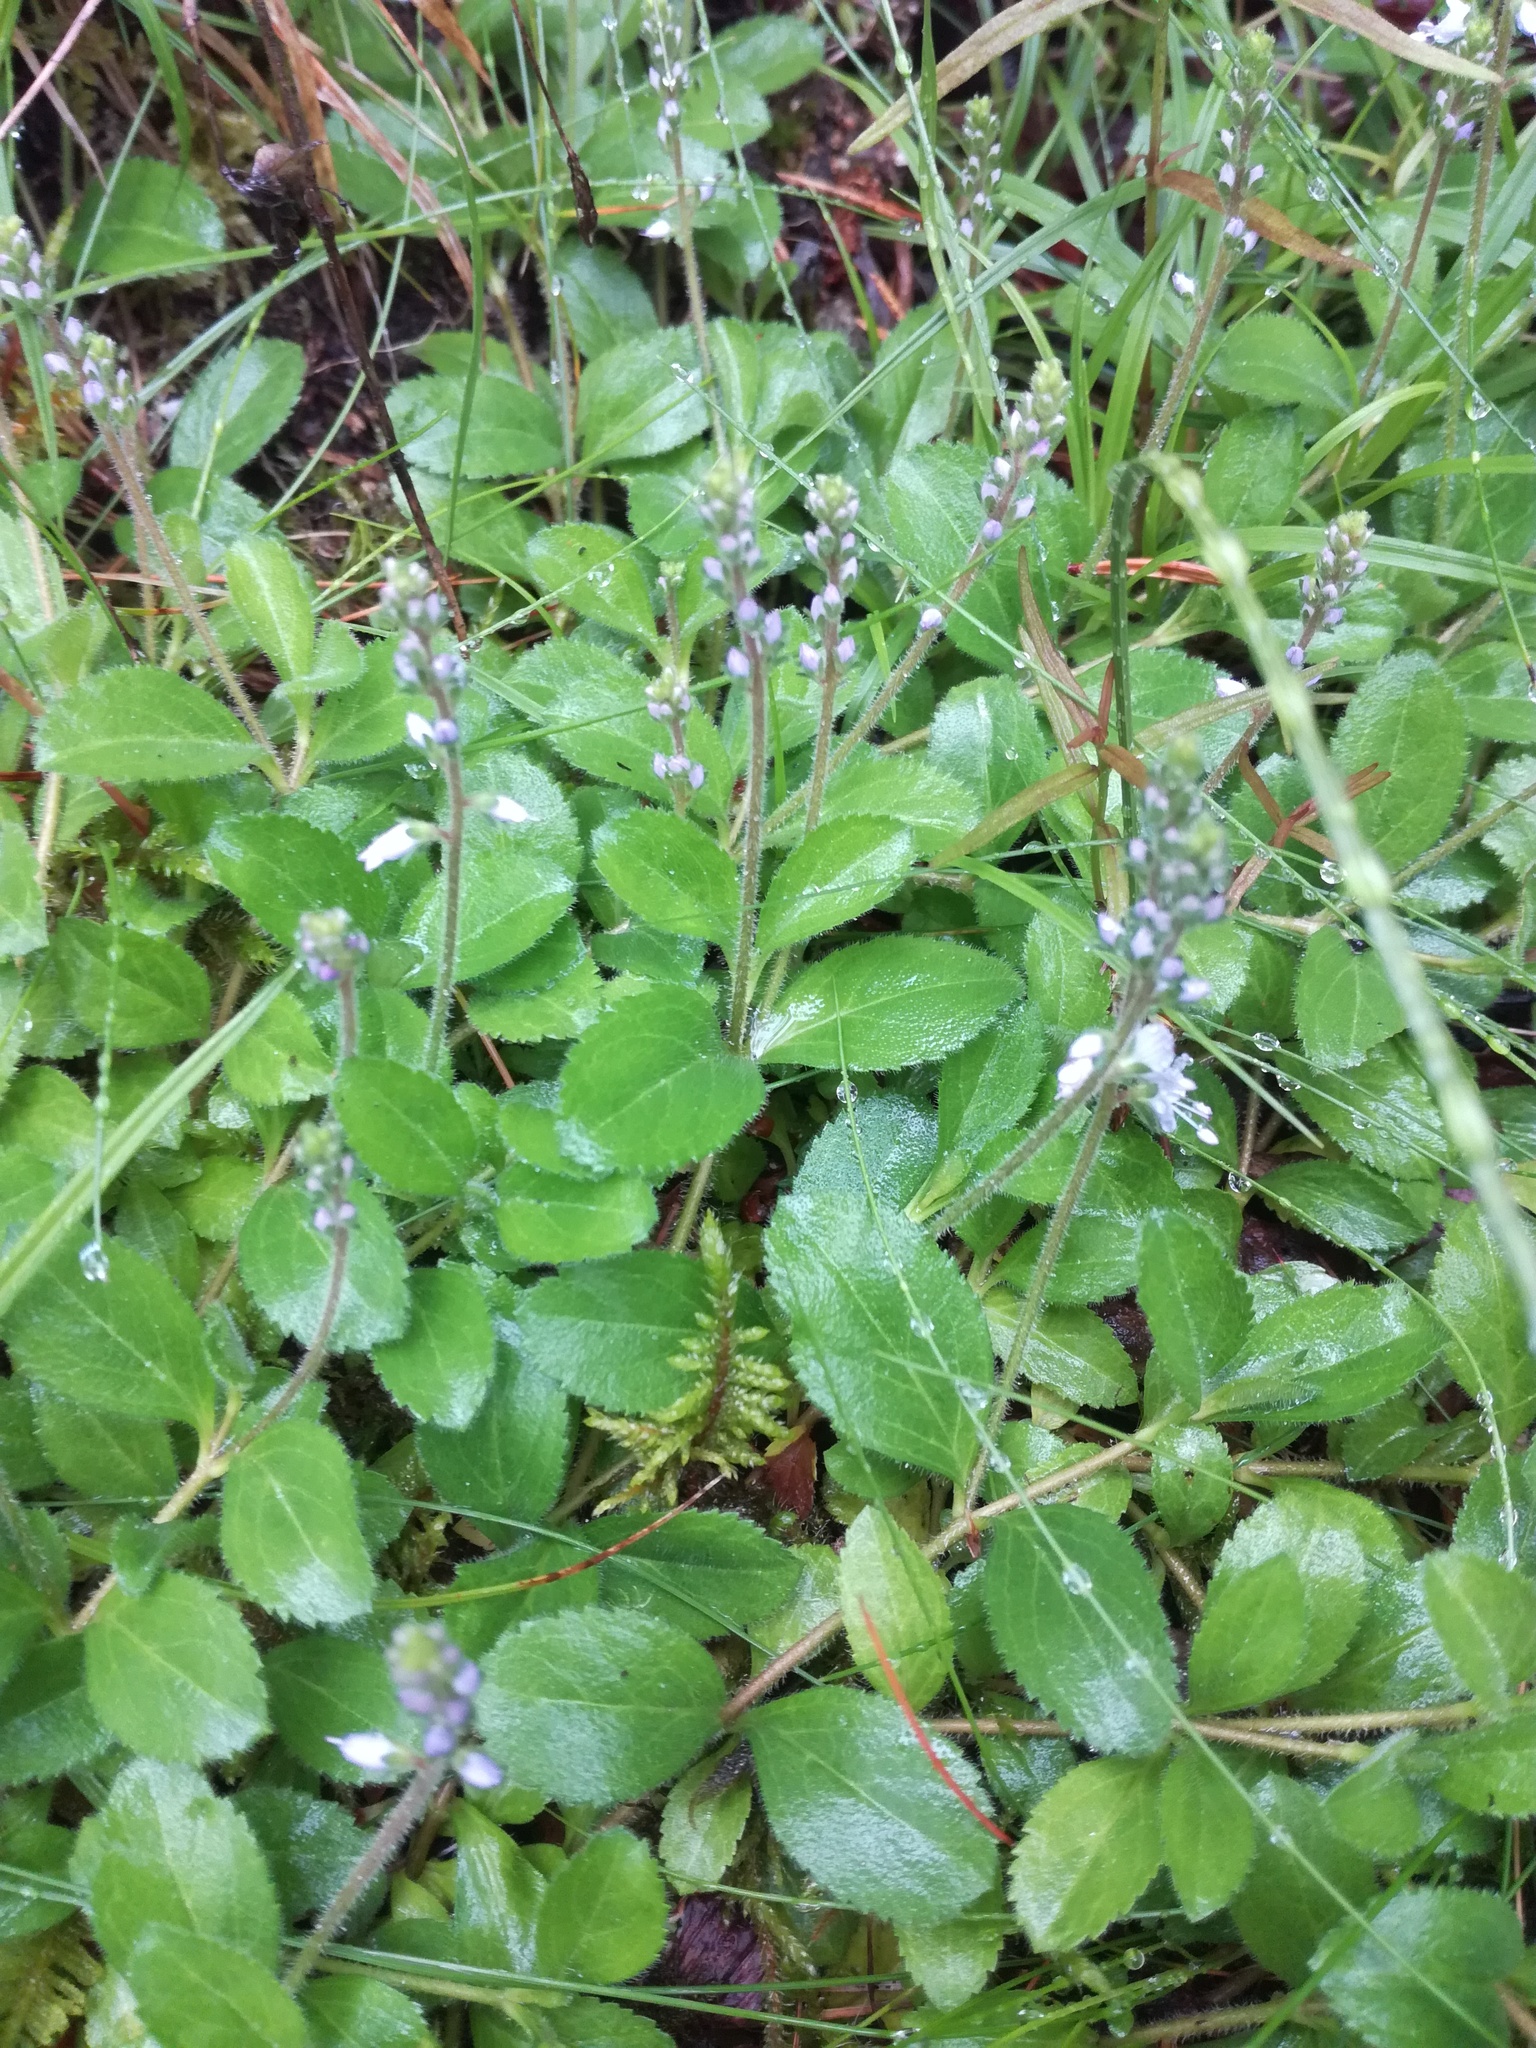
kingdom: Plantae
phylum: Tracheophyta
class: Magnoliopsida
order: Lamiales
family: Plantaginaceae
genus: Veronica
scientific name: Veronica officinalis
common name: Common speedwell
